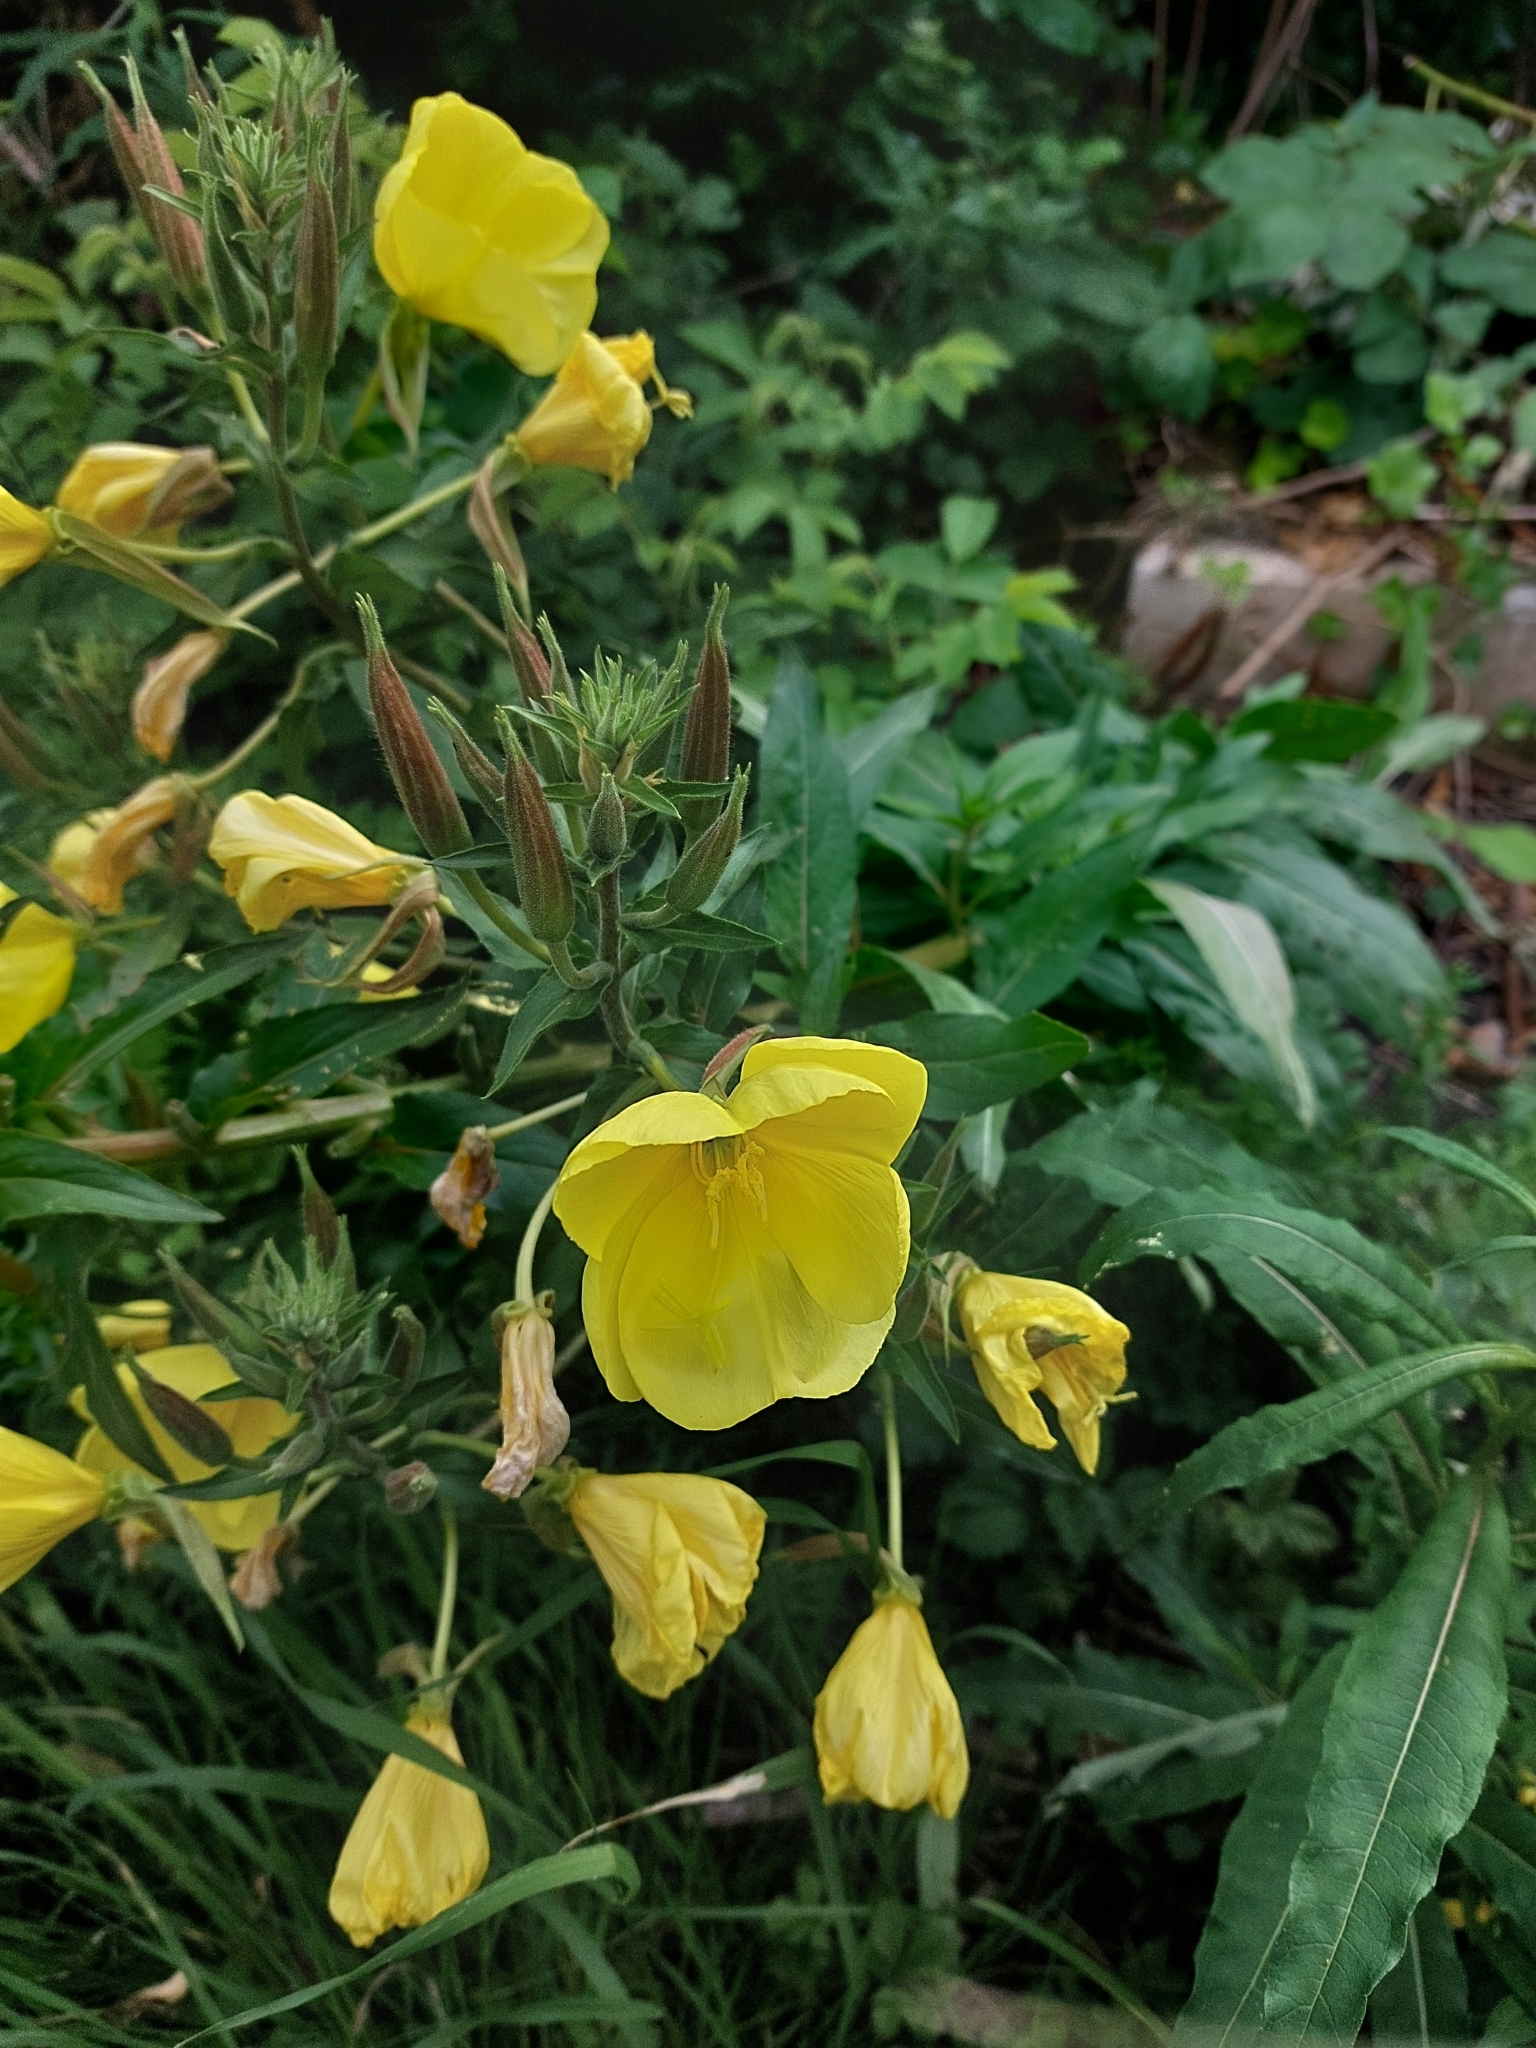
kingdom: Plantae
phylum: Tracheophyta
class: Magnoliopsida
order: Myrtales
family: Onagraceae
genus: Oenothera
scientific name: Oenothera glazioviana
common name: Large-flowered evening-primrose
